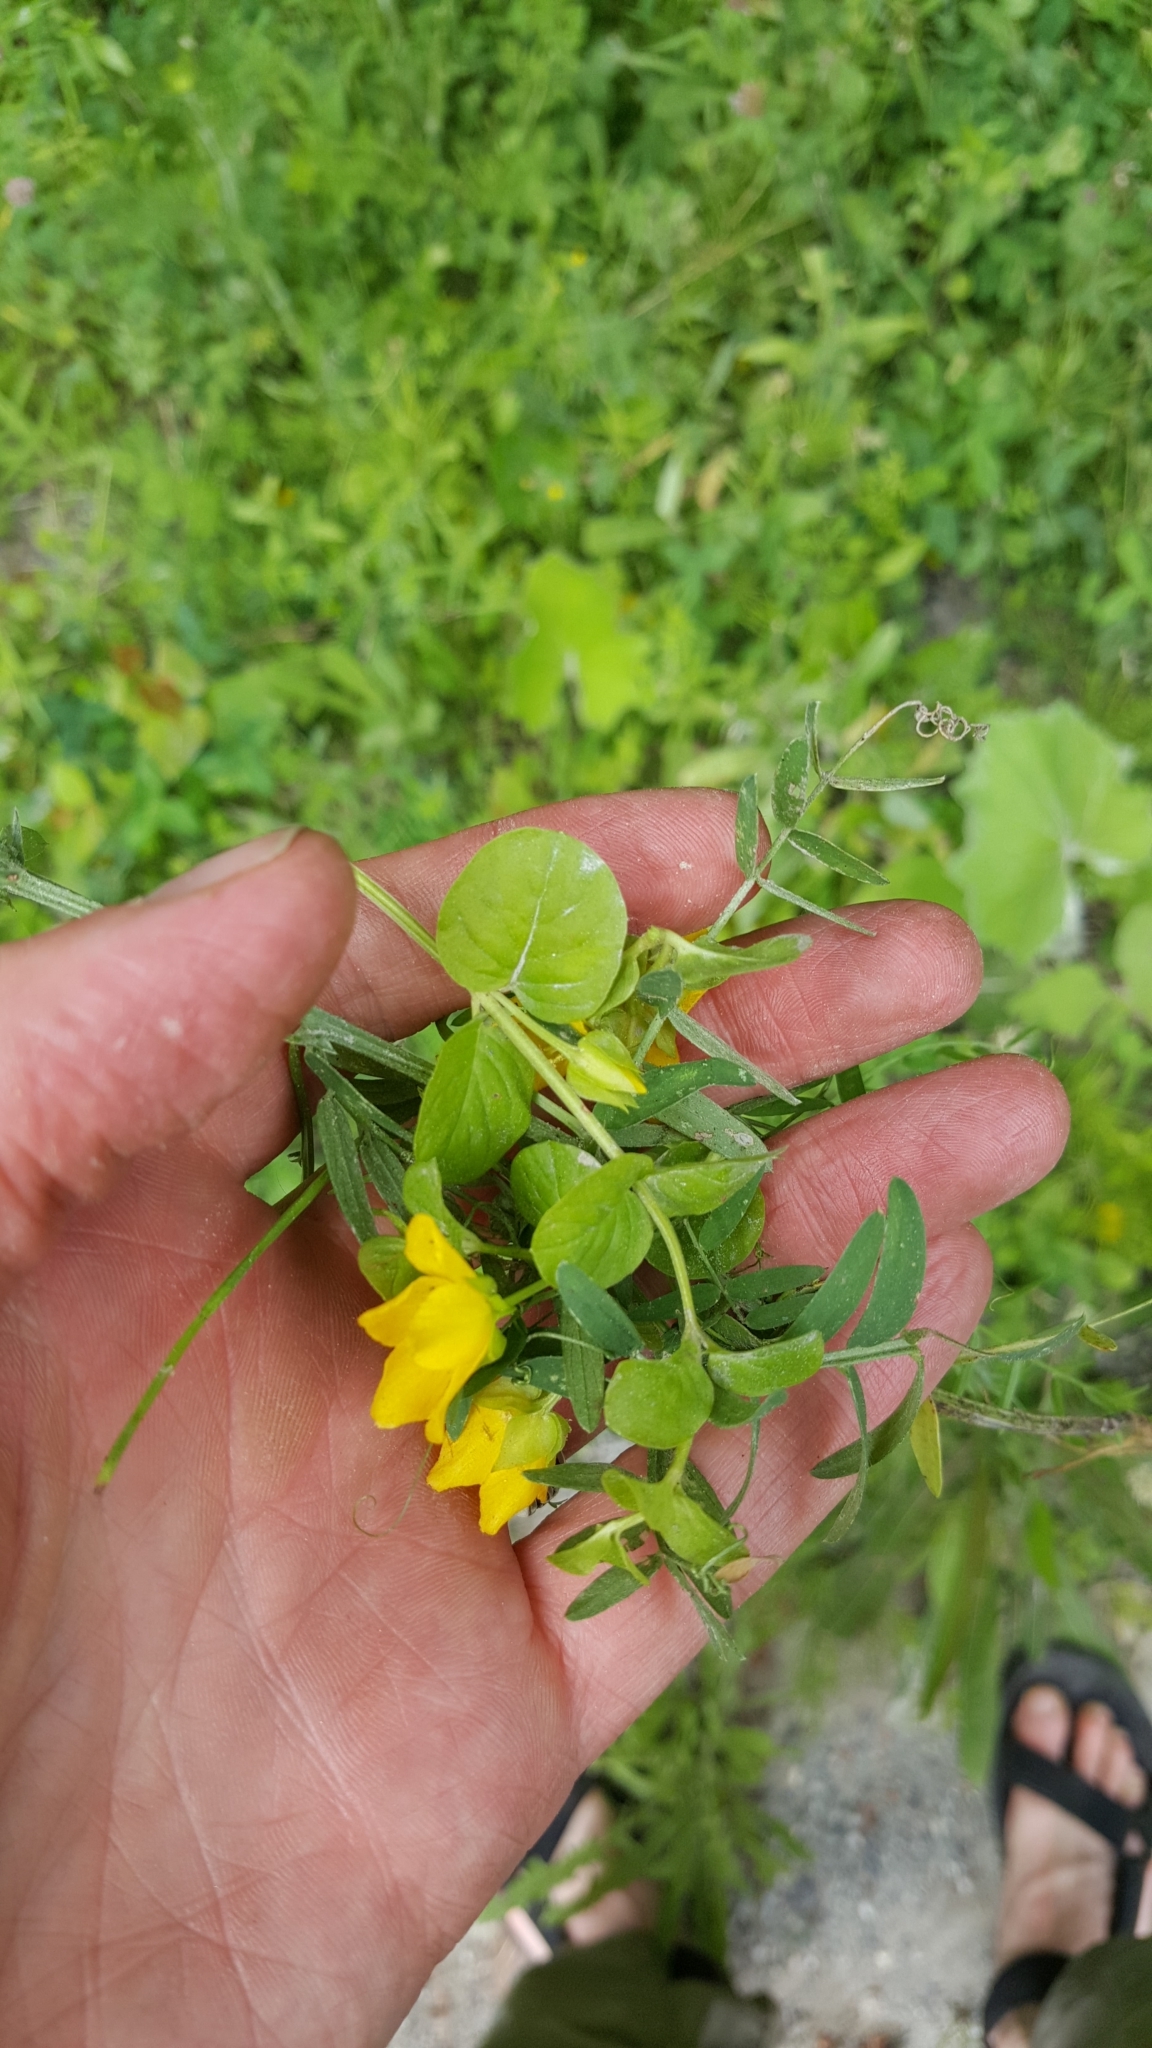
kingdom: Plantae
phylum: Tracheophyta
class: Magnoliopsida
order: Ericales
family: Primulaceae
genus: Lysimachia
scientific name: Lysimachia nummularia
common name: Moneywort
